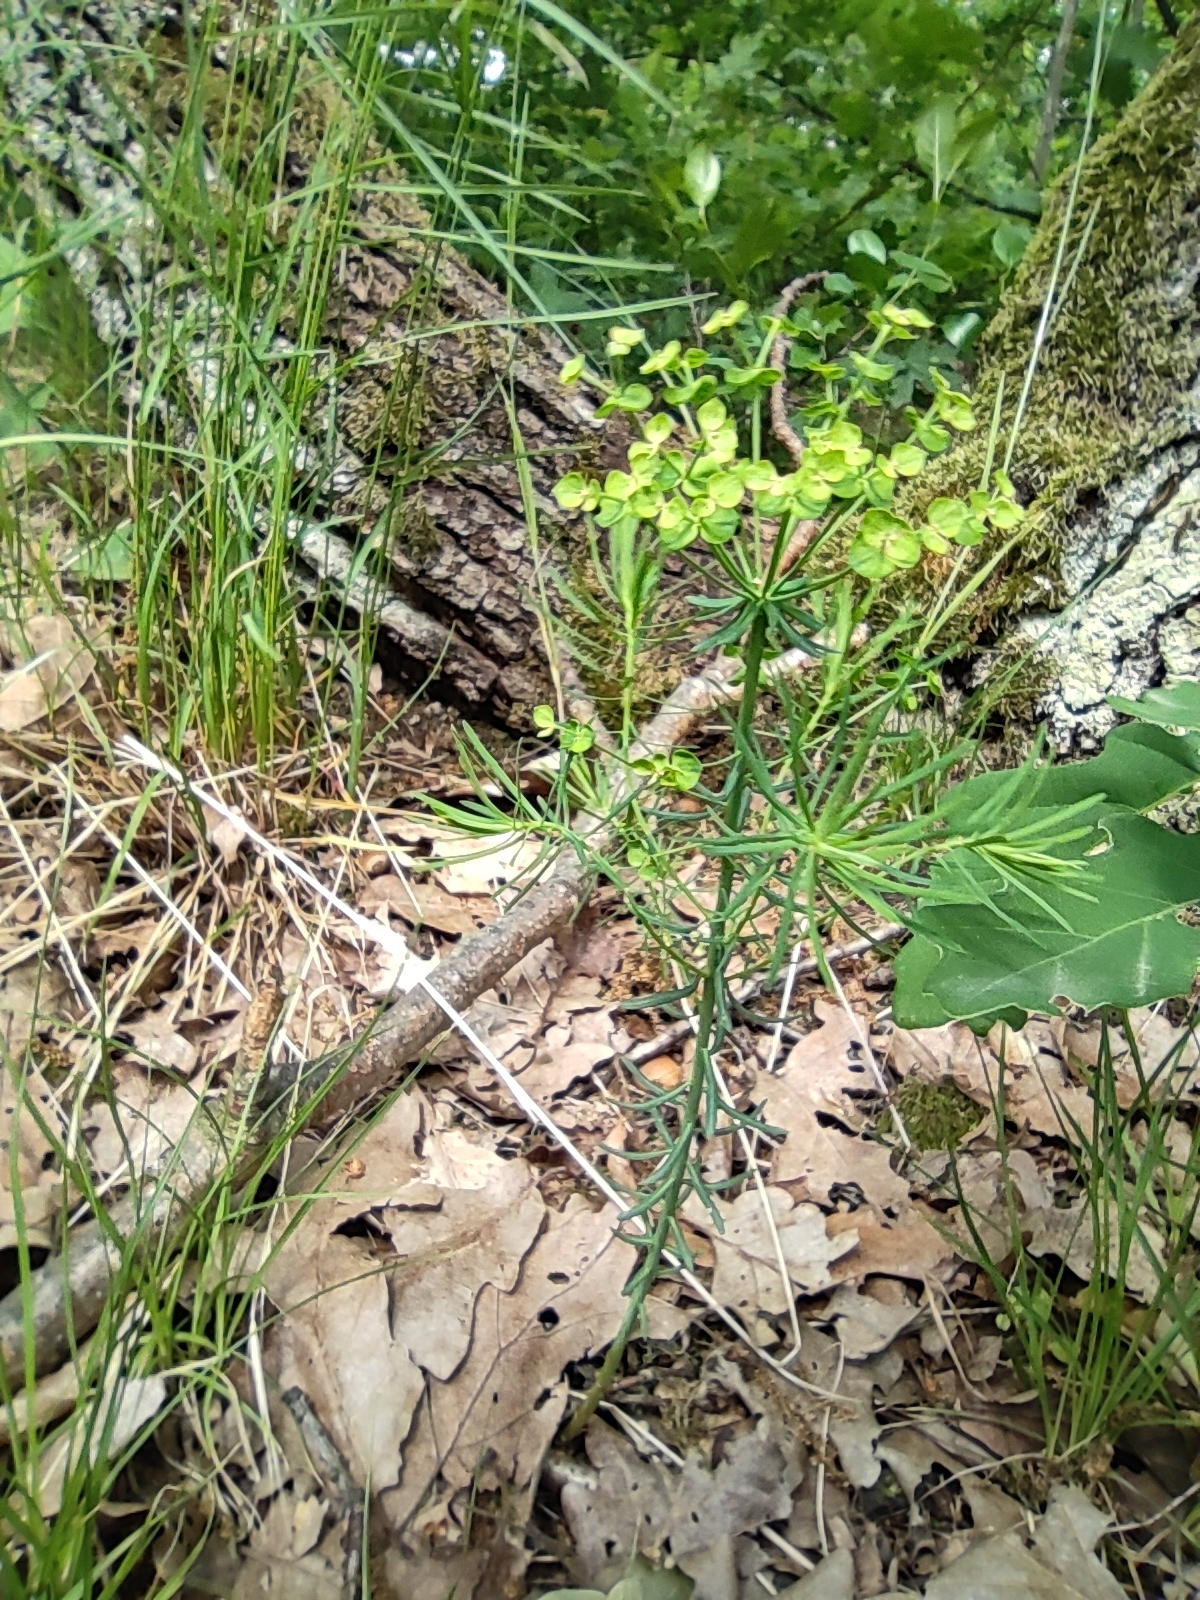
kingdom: Plantae
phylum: Tracheophyta
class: Magnoliopsida
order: Malpighiales
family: Euphorbiaceae
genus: Euphorbia
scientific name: Euphorbia cyparissias
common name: Cypress spurge
